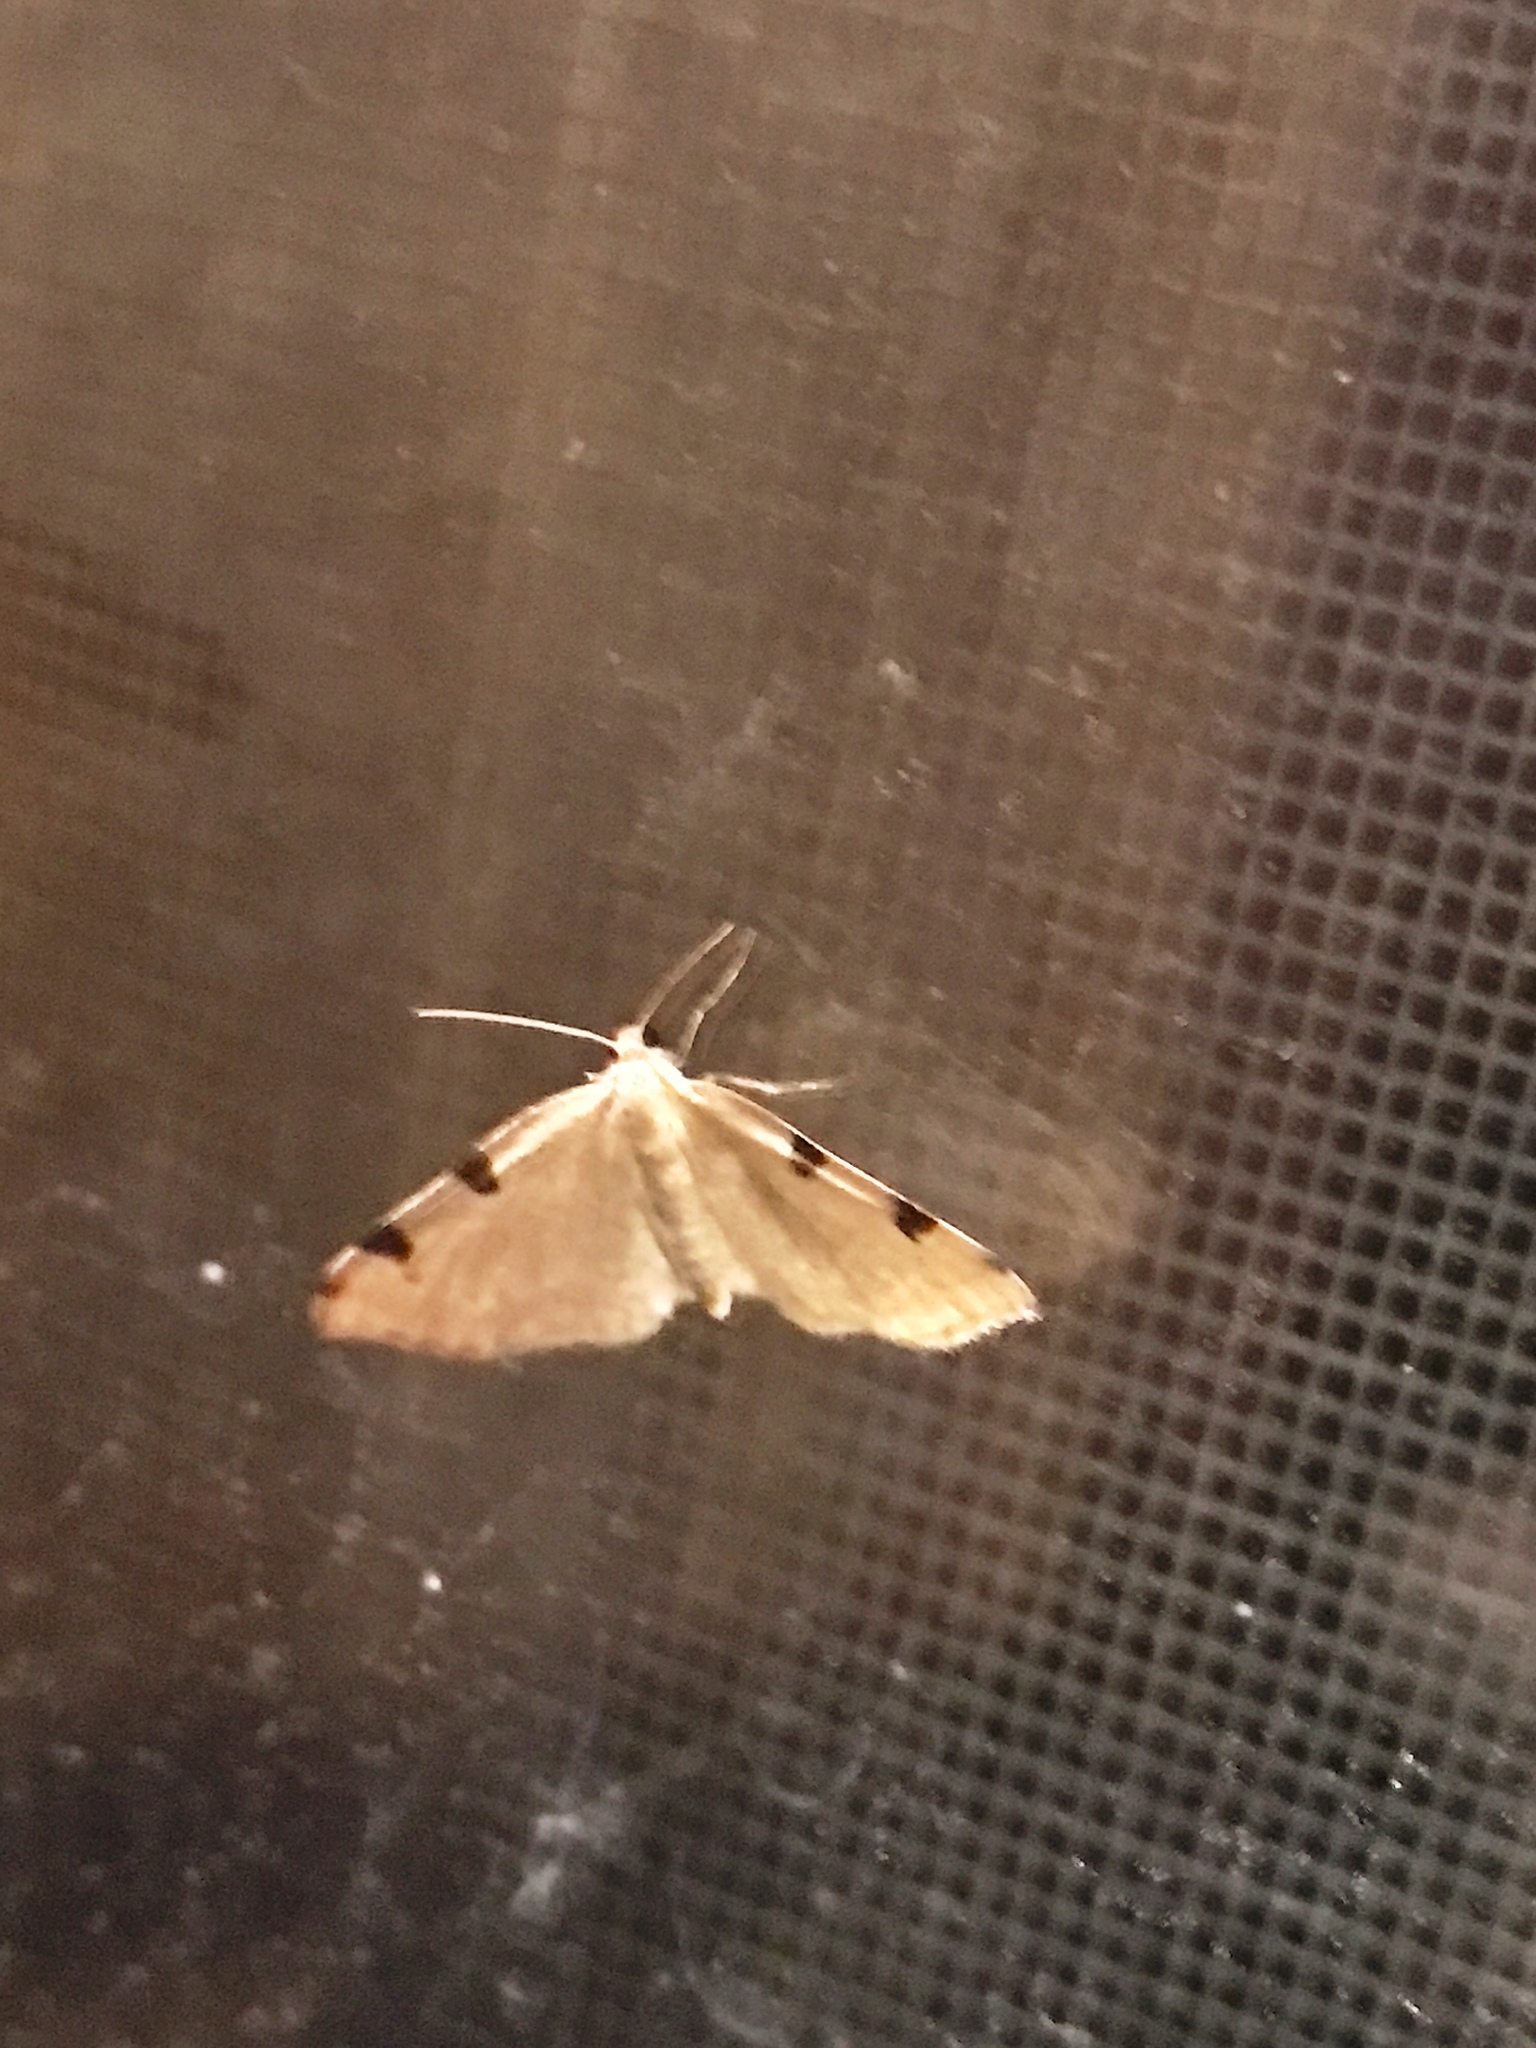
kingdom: Animalia
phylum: Arthropoda
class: Insecta
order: Lepidoptera
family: Geometridae
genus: Heterophleps
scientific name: Heterophleps triguttaria
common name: Three-spotted fillip
